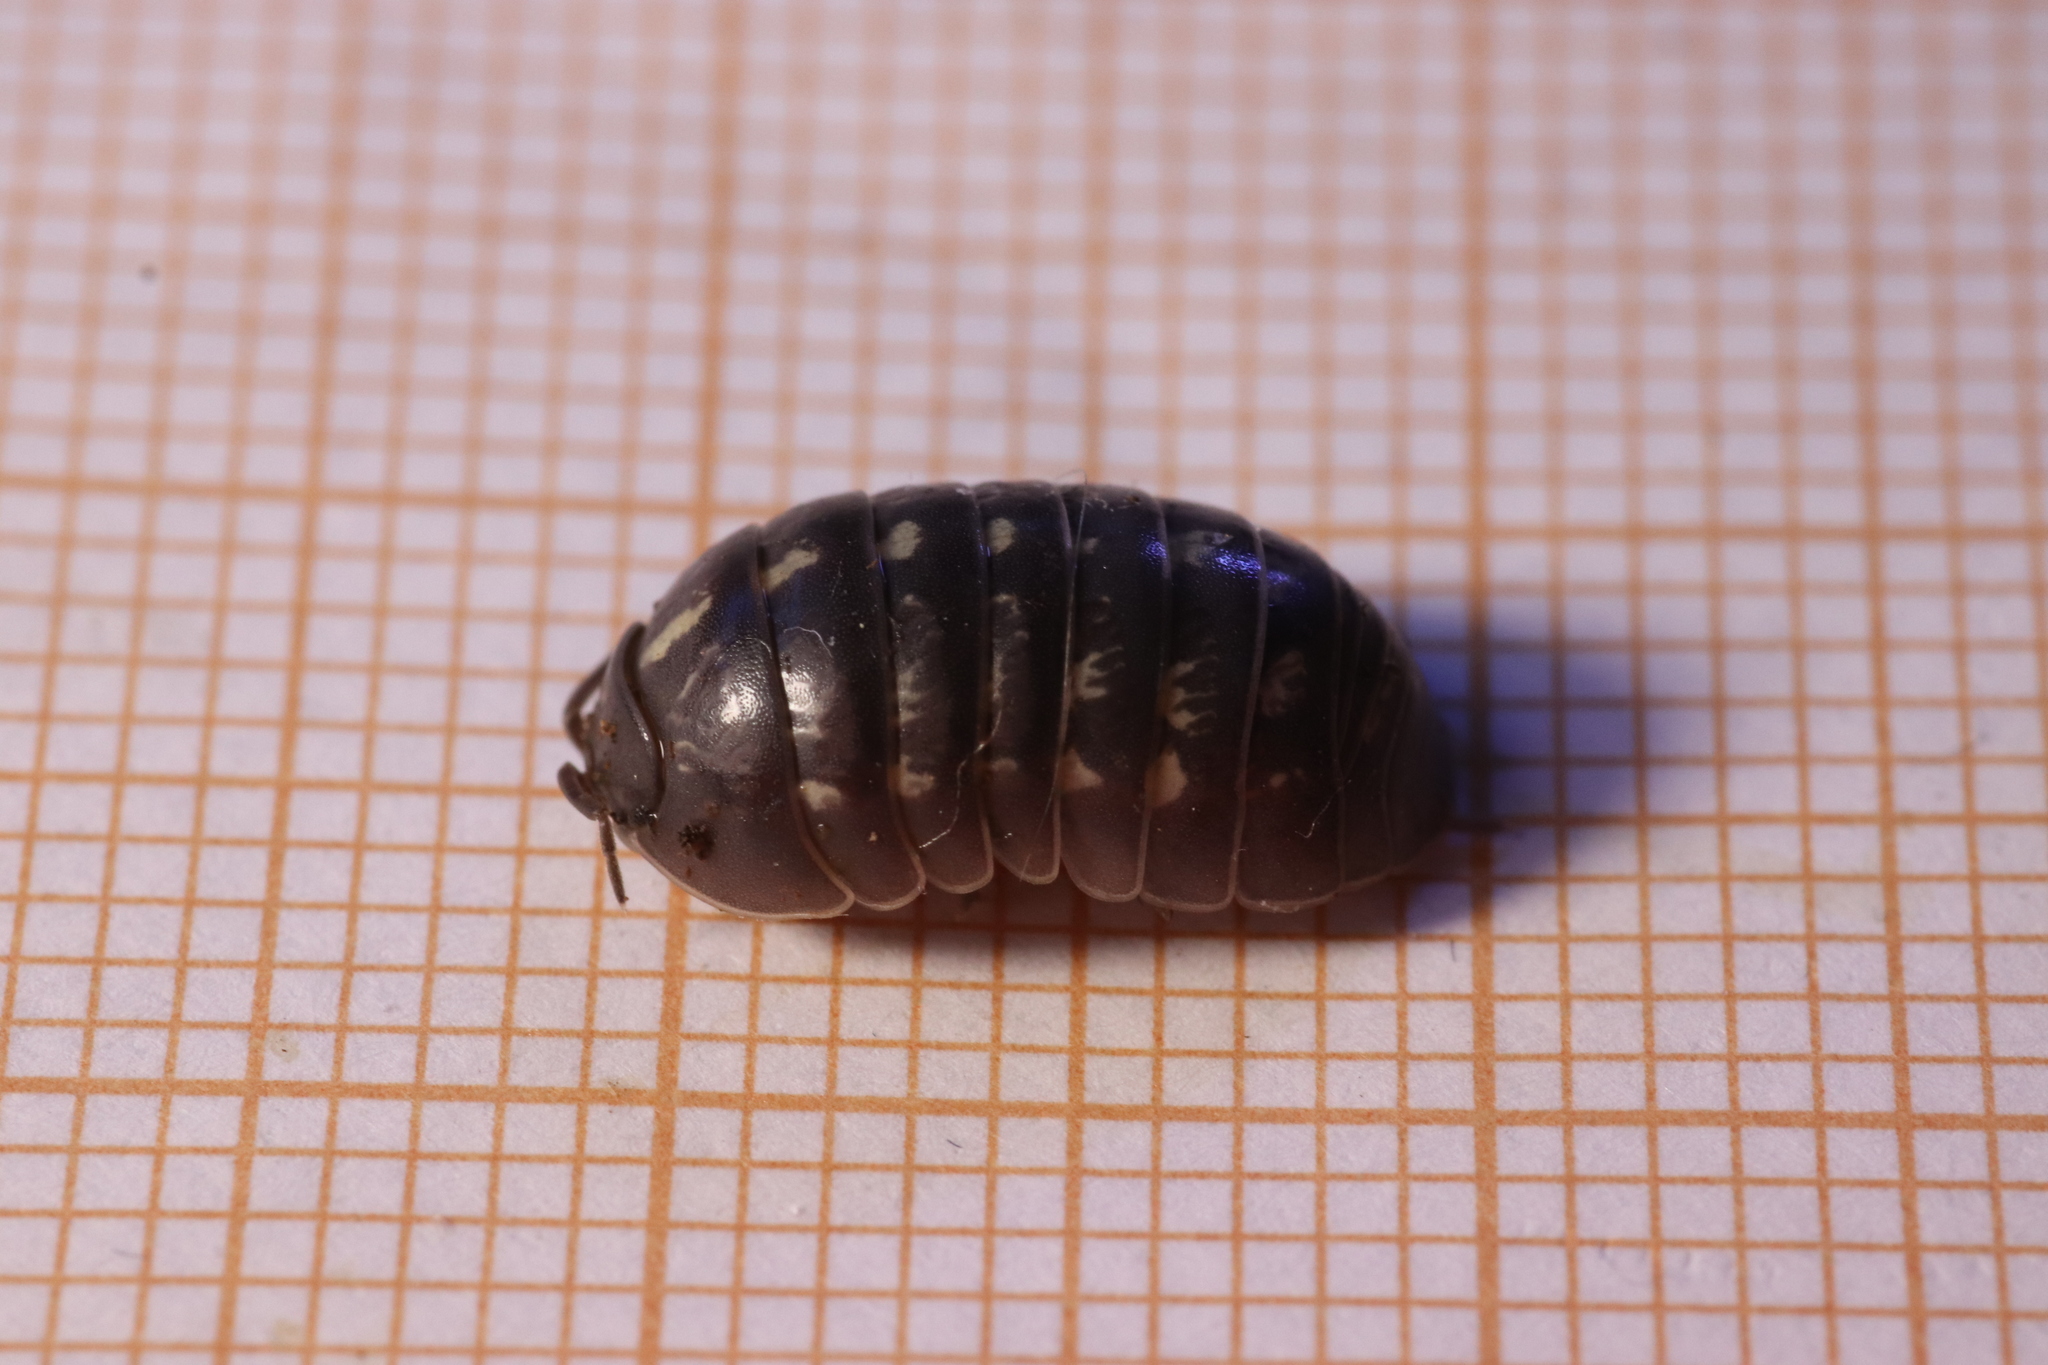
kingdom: Animalia
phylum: Arthropoda
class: Malacostraca
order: Isopoda
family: Armadillidiidae
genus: Armadillidium
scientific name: Armadillidium vulgare
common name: Common pill woodlouse
